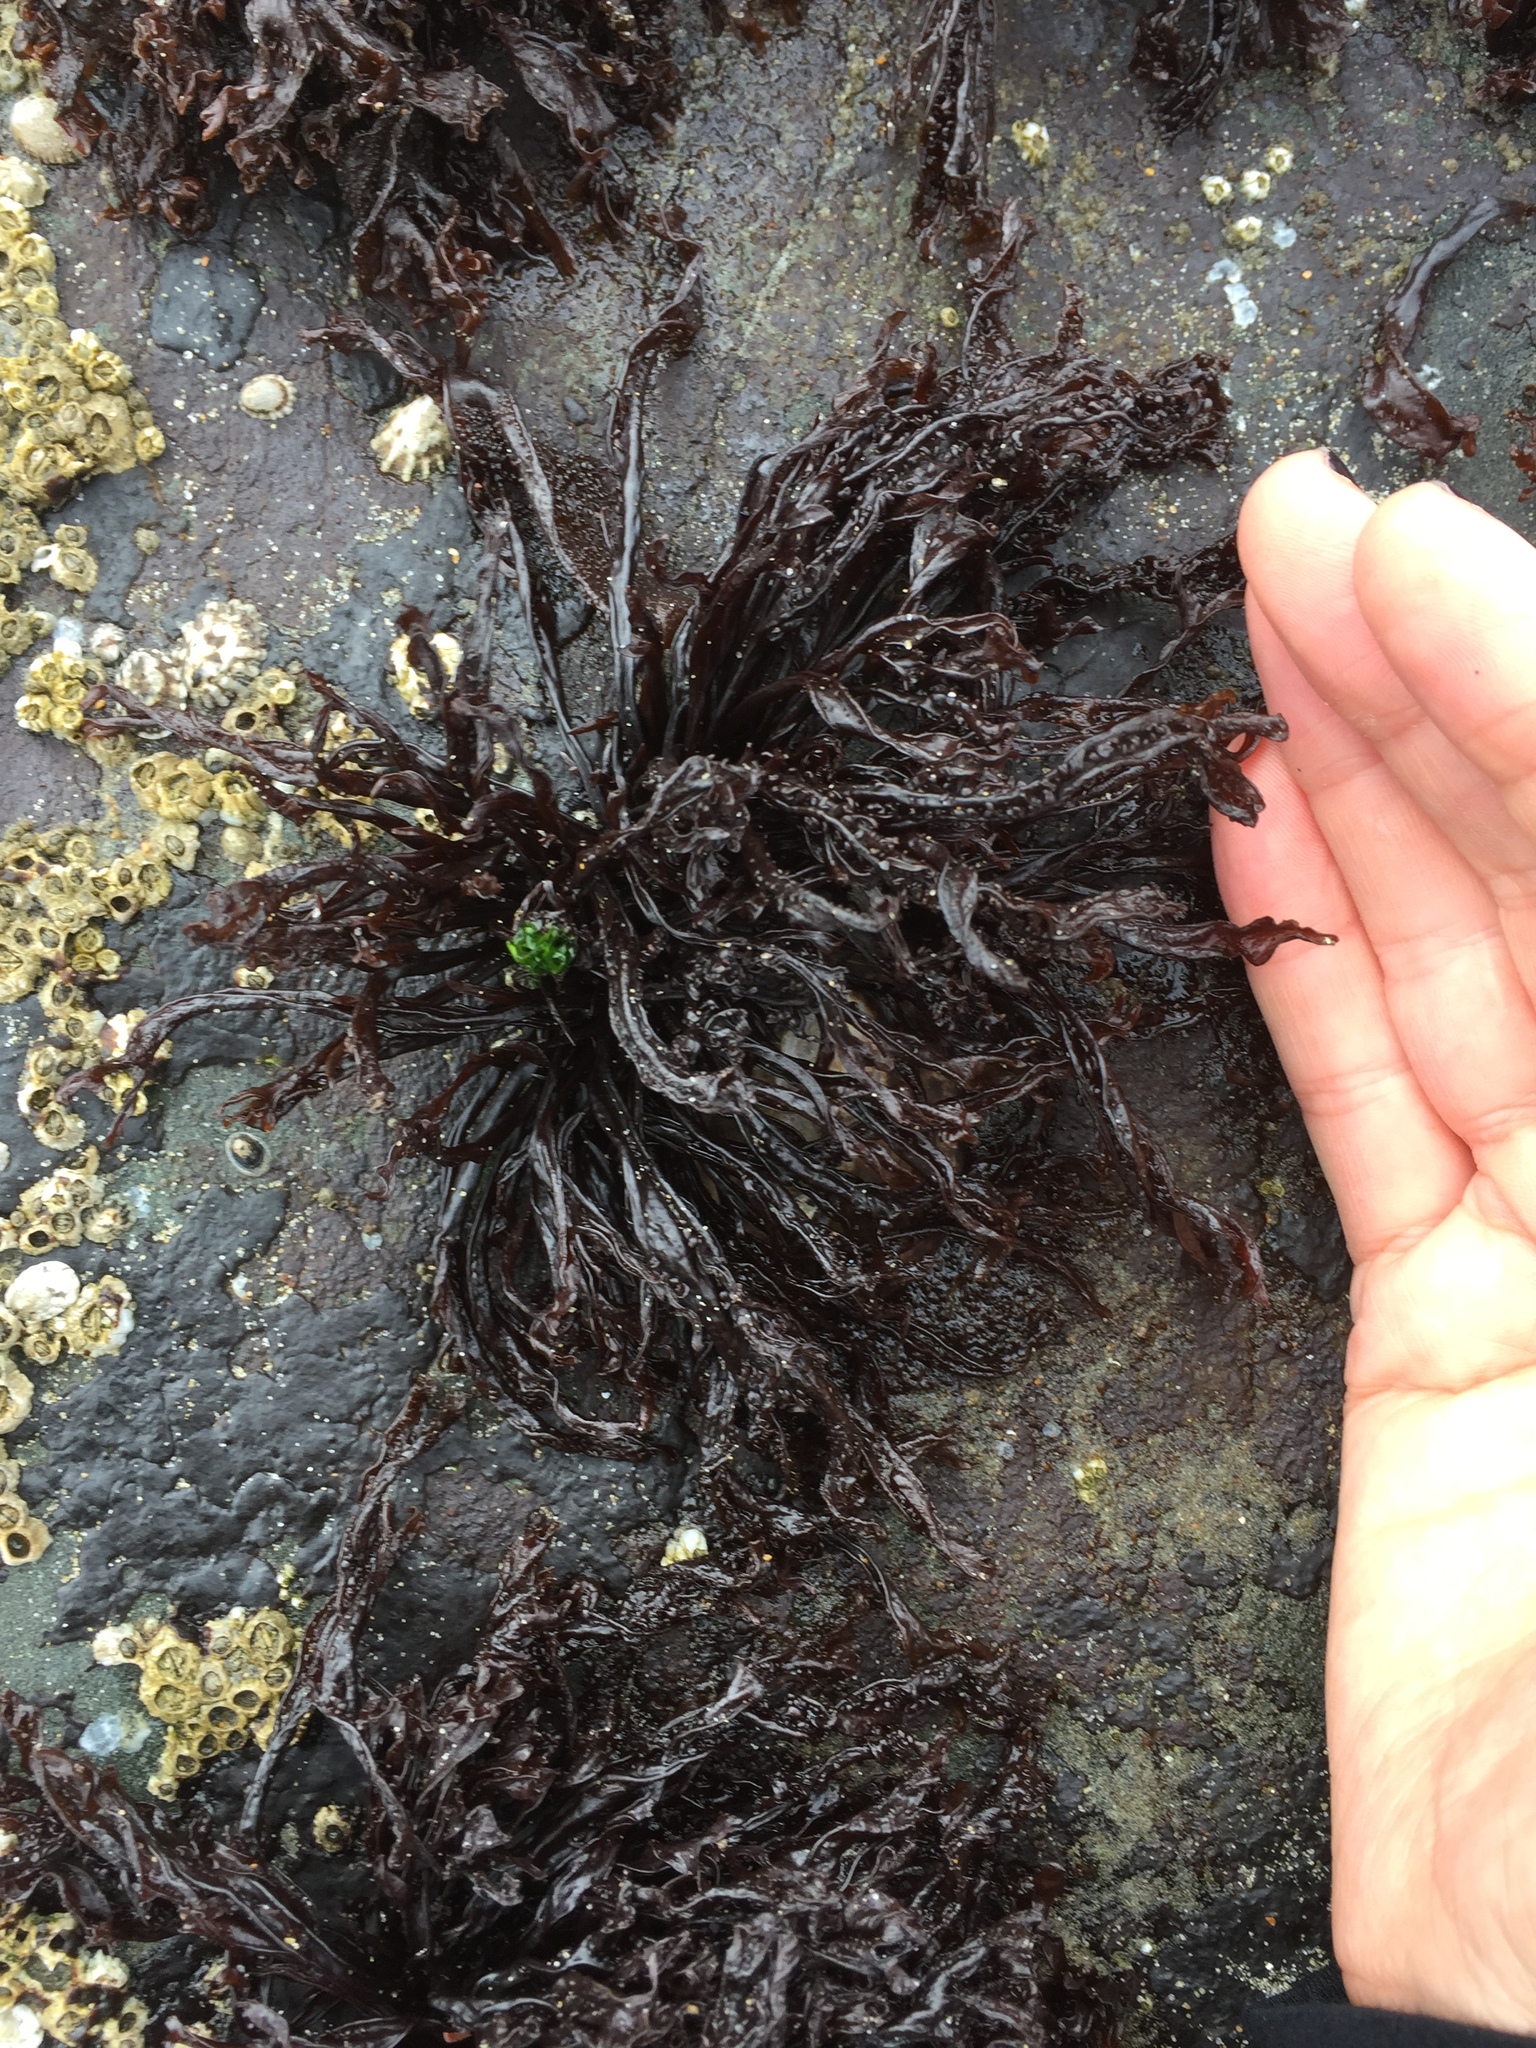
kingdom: Plantae
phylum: Rhodophyta
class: Florideophyceae
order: Gigartinales
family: Phyllophoraceae
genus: Mastocarpus
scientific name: Mastocarpus agardhii
